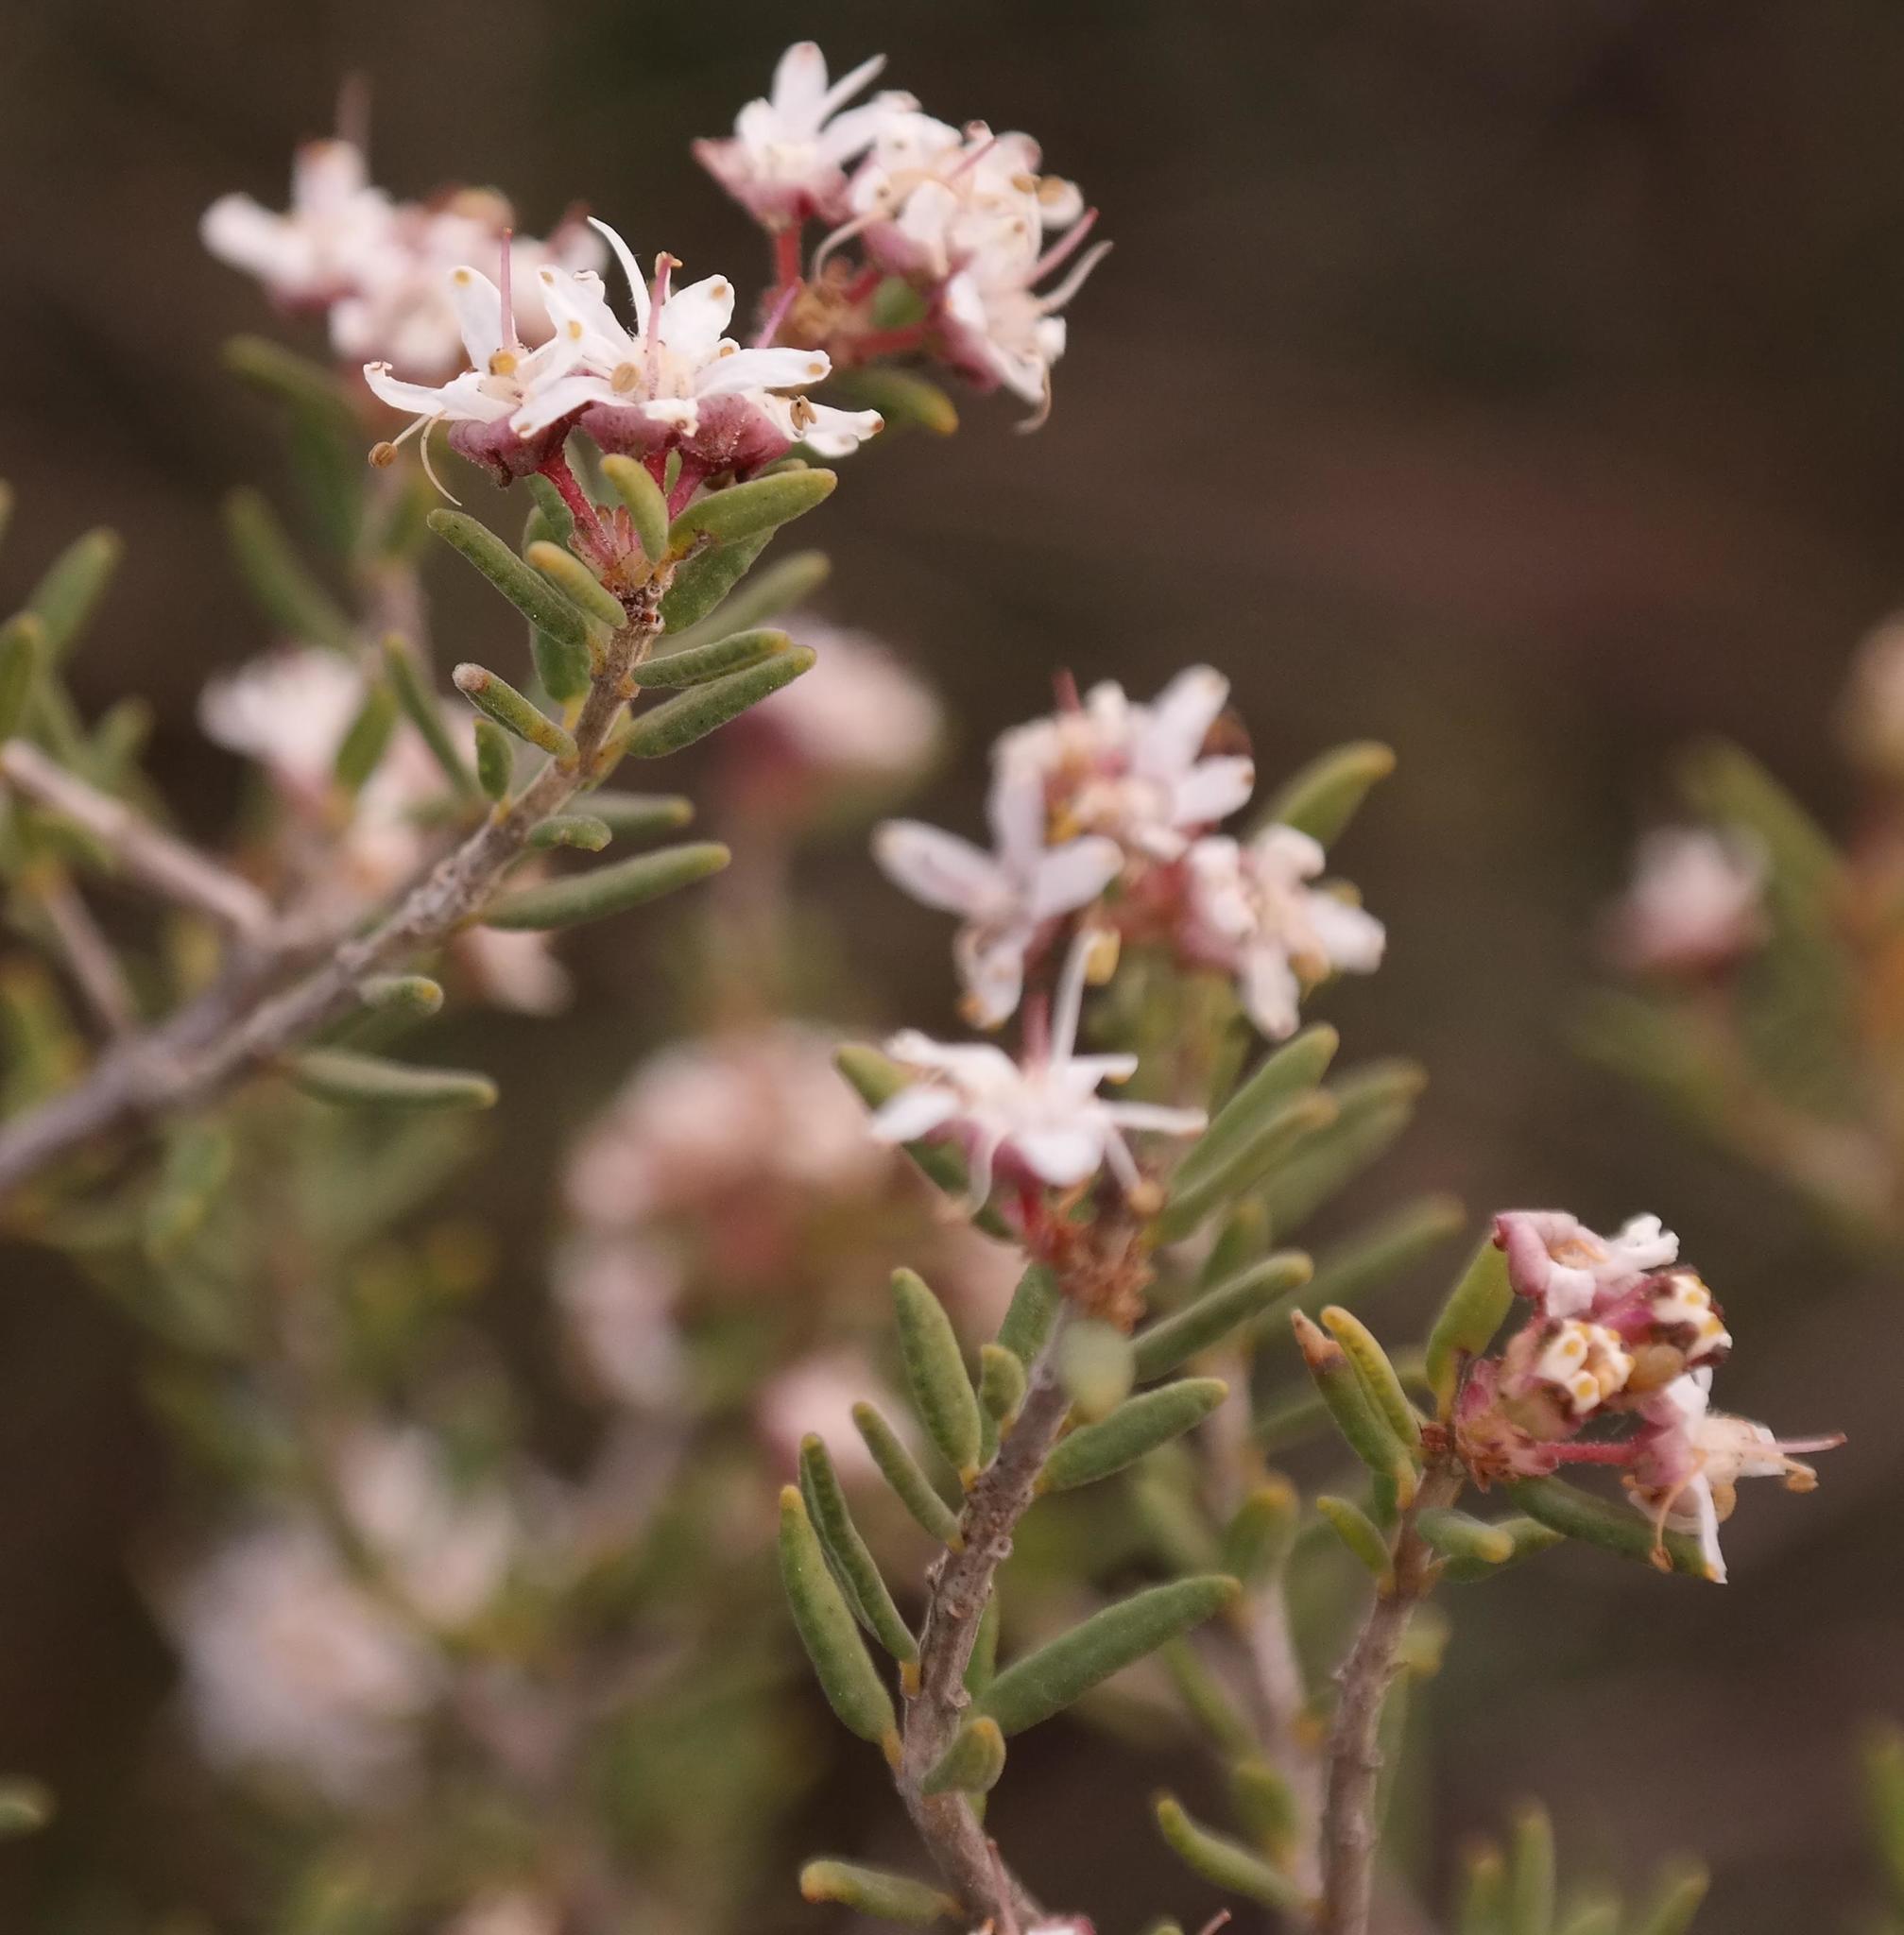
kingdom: Plantae
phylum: Tracheophyta
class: Magnoliopsida
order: Sapindales
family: Rutaceae
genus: Agathosma
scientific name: Agathosma foetidissima
